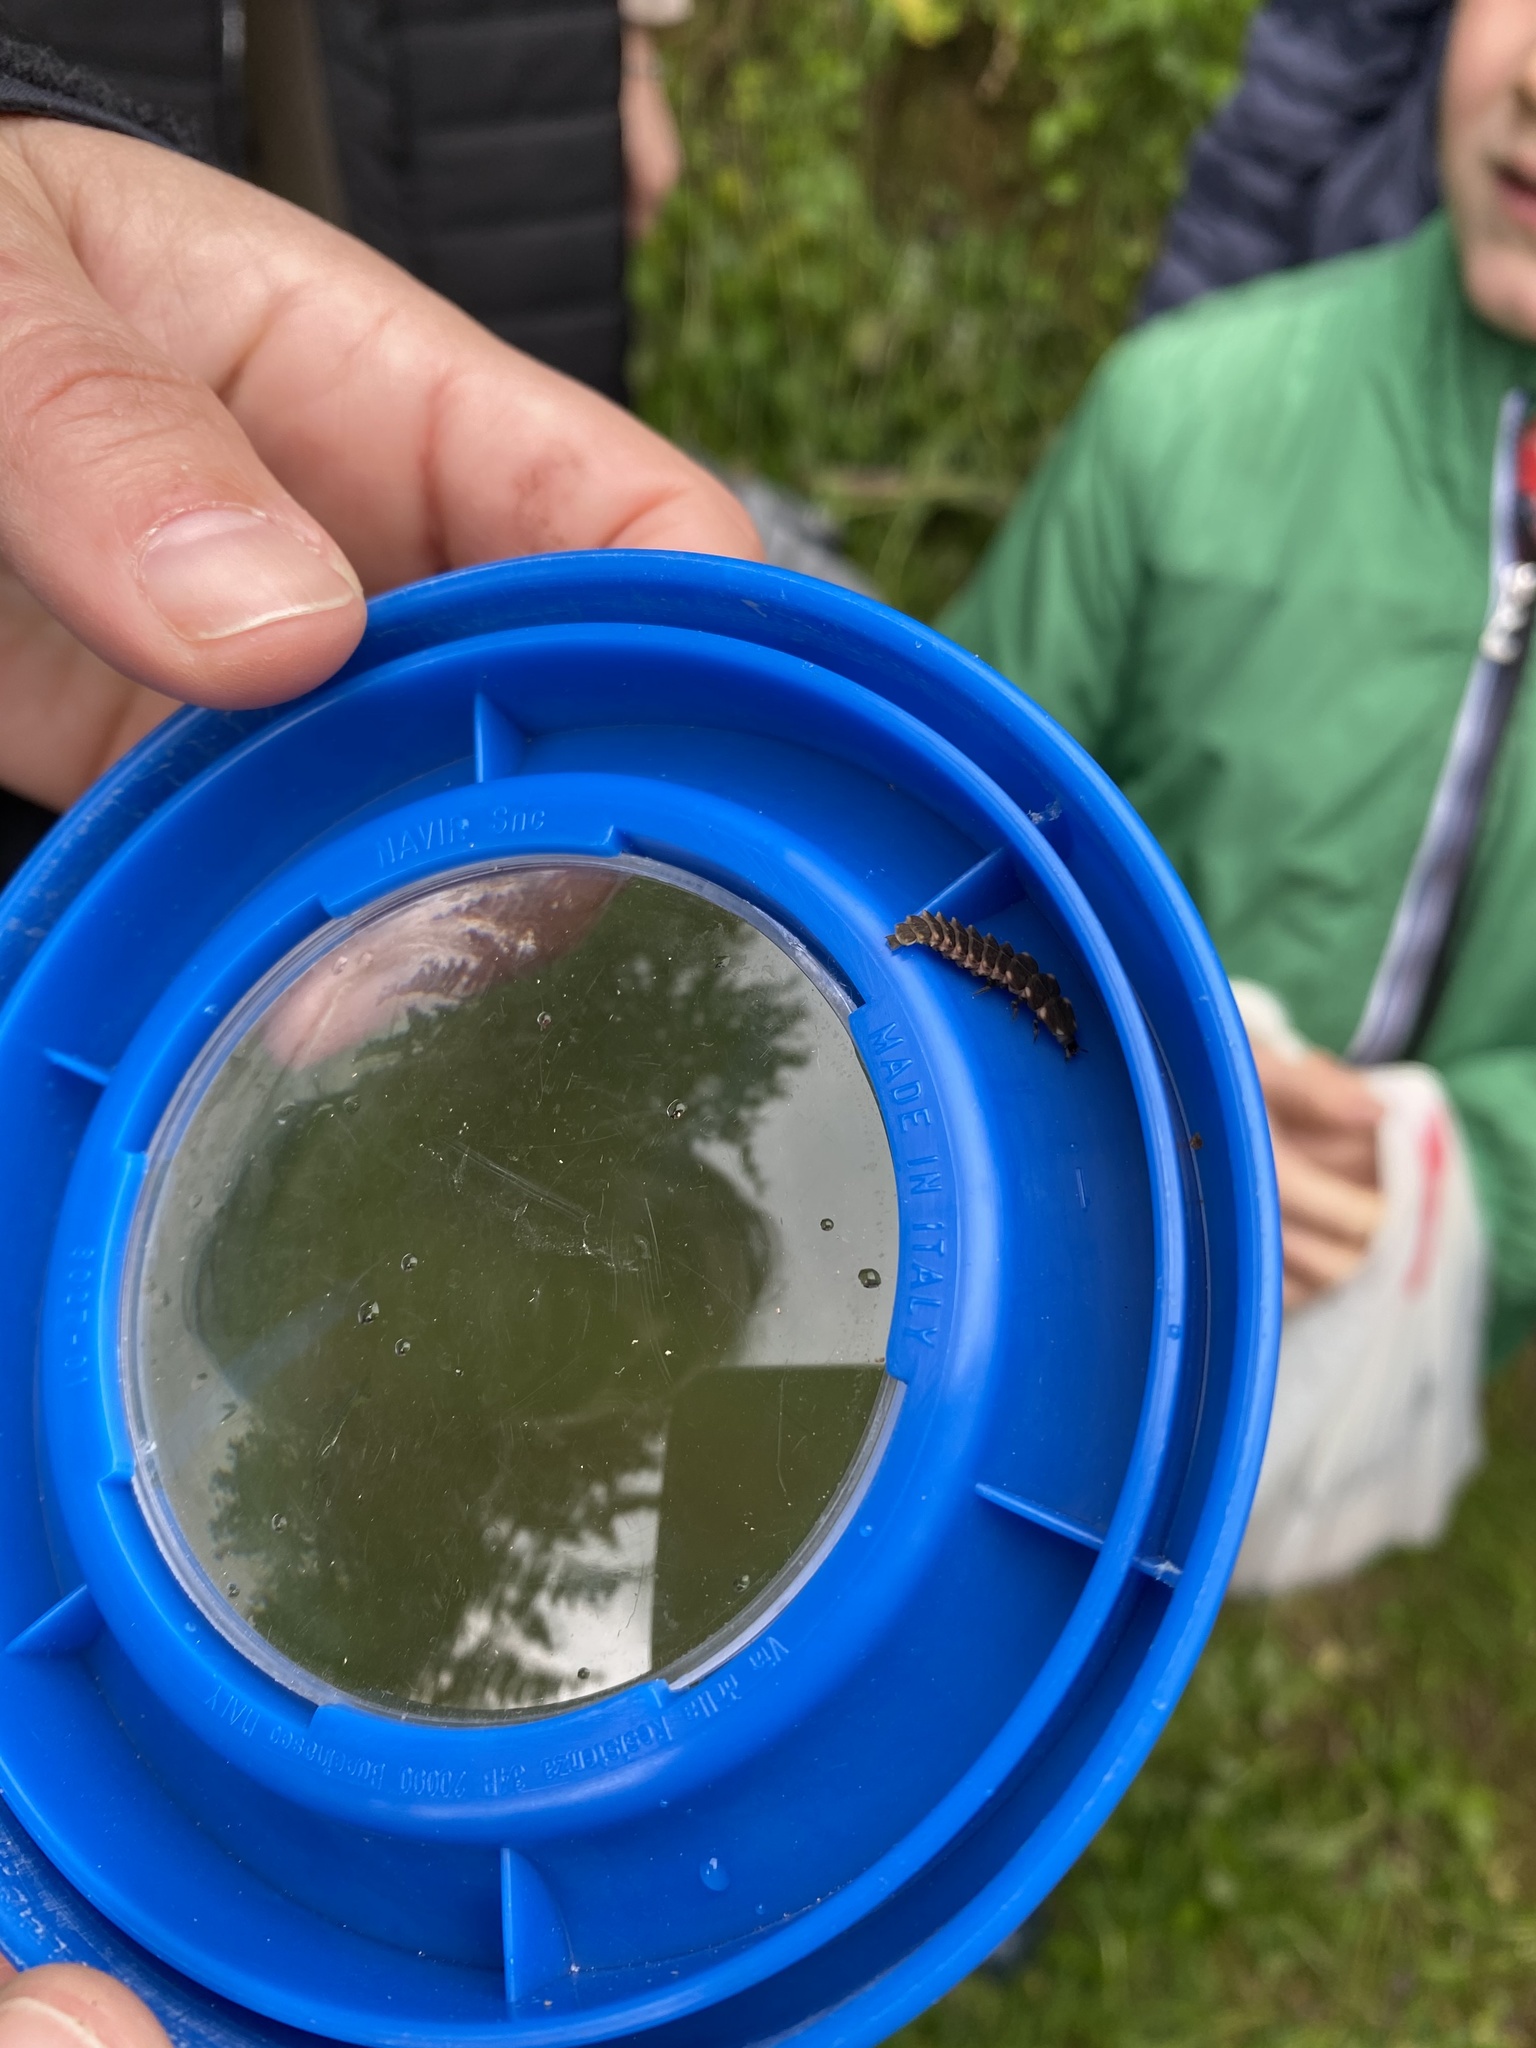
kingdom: Animalia
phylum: Arthropoda
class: Insecta
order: Coleoptera
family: Lampyridae
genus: Lampyris
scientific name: Lampyris noctiluca
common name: Glow-worm
